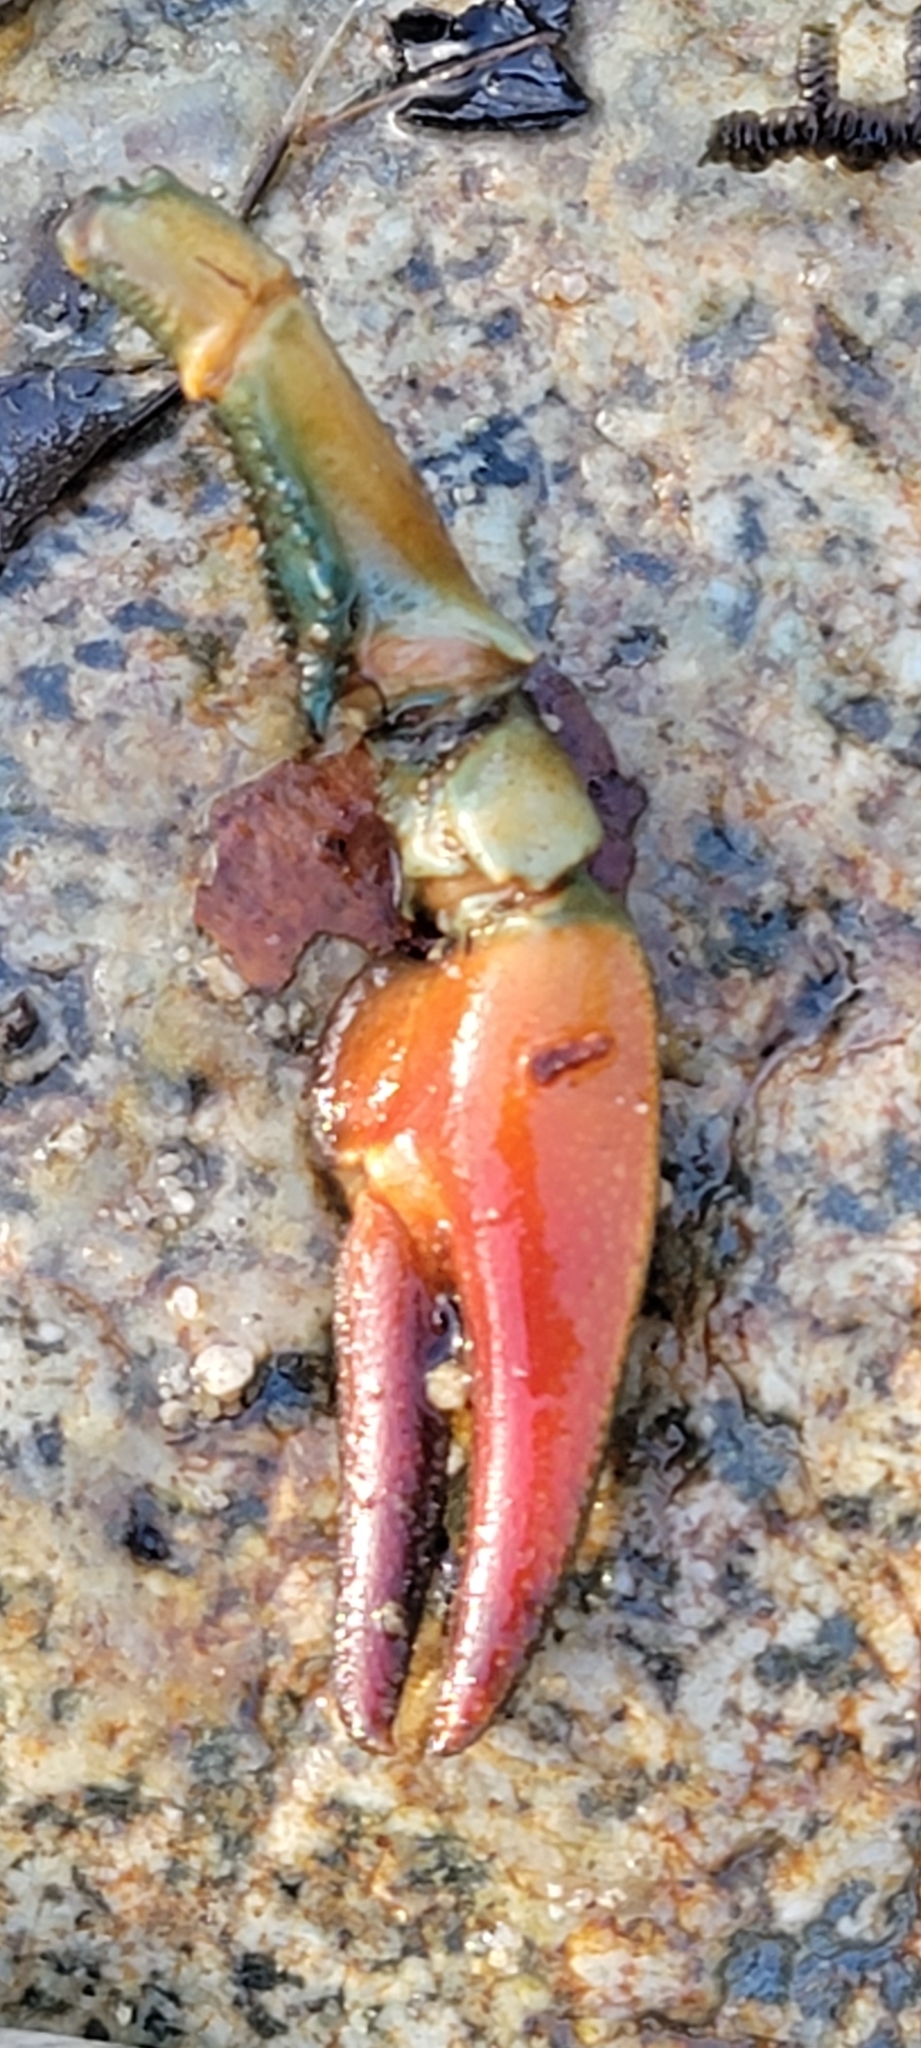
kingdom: Animalia
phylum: Arthropoda
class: Malacostraca
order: Decapoda
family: Astacidae
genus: Pacifastacus
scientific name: Pacifastacus leniusculus
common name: Signal crayfish
